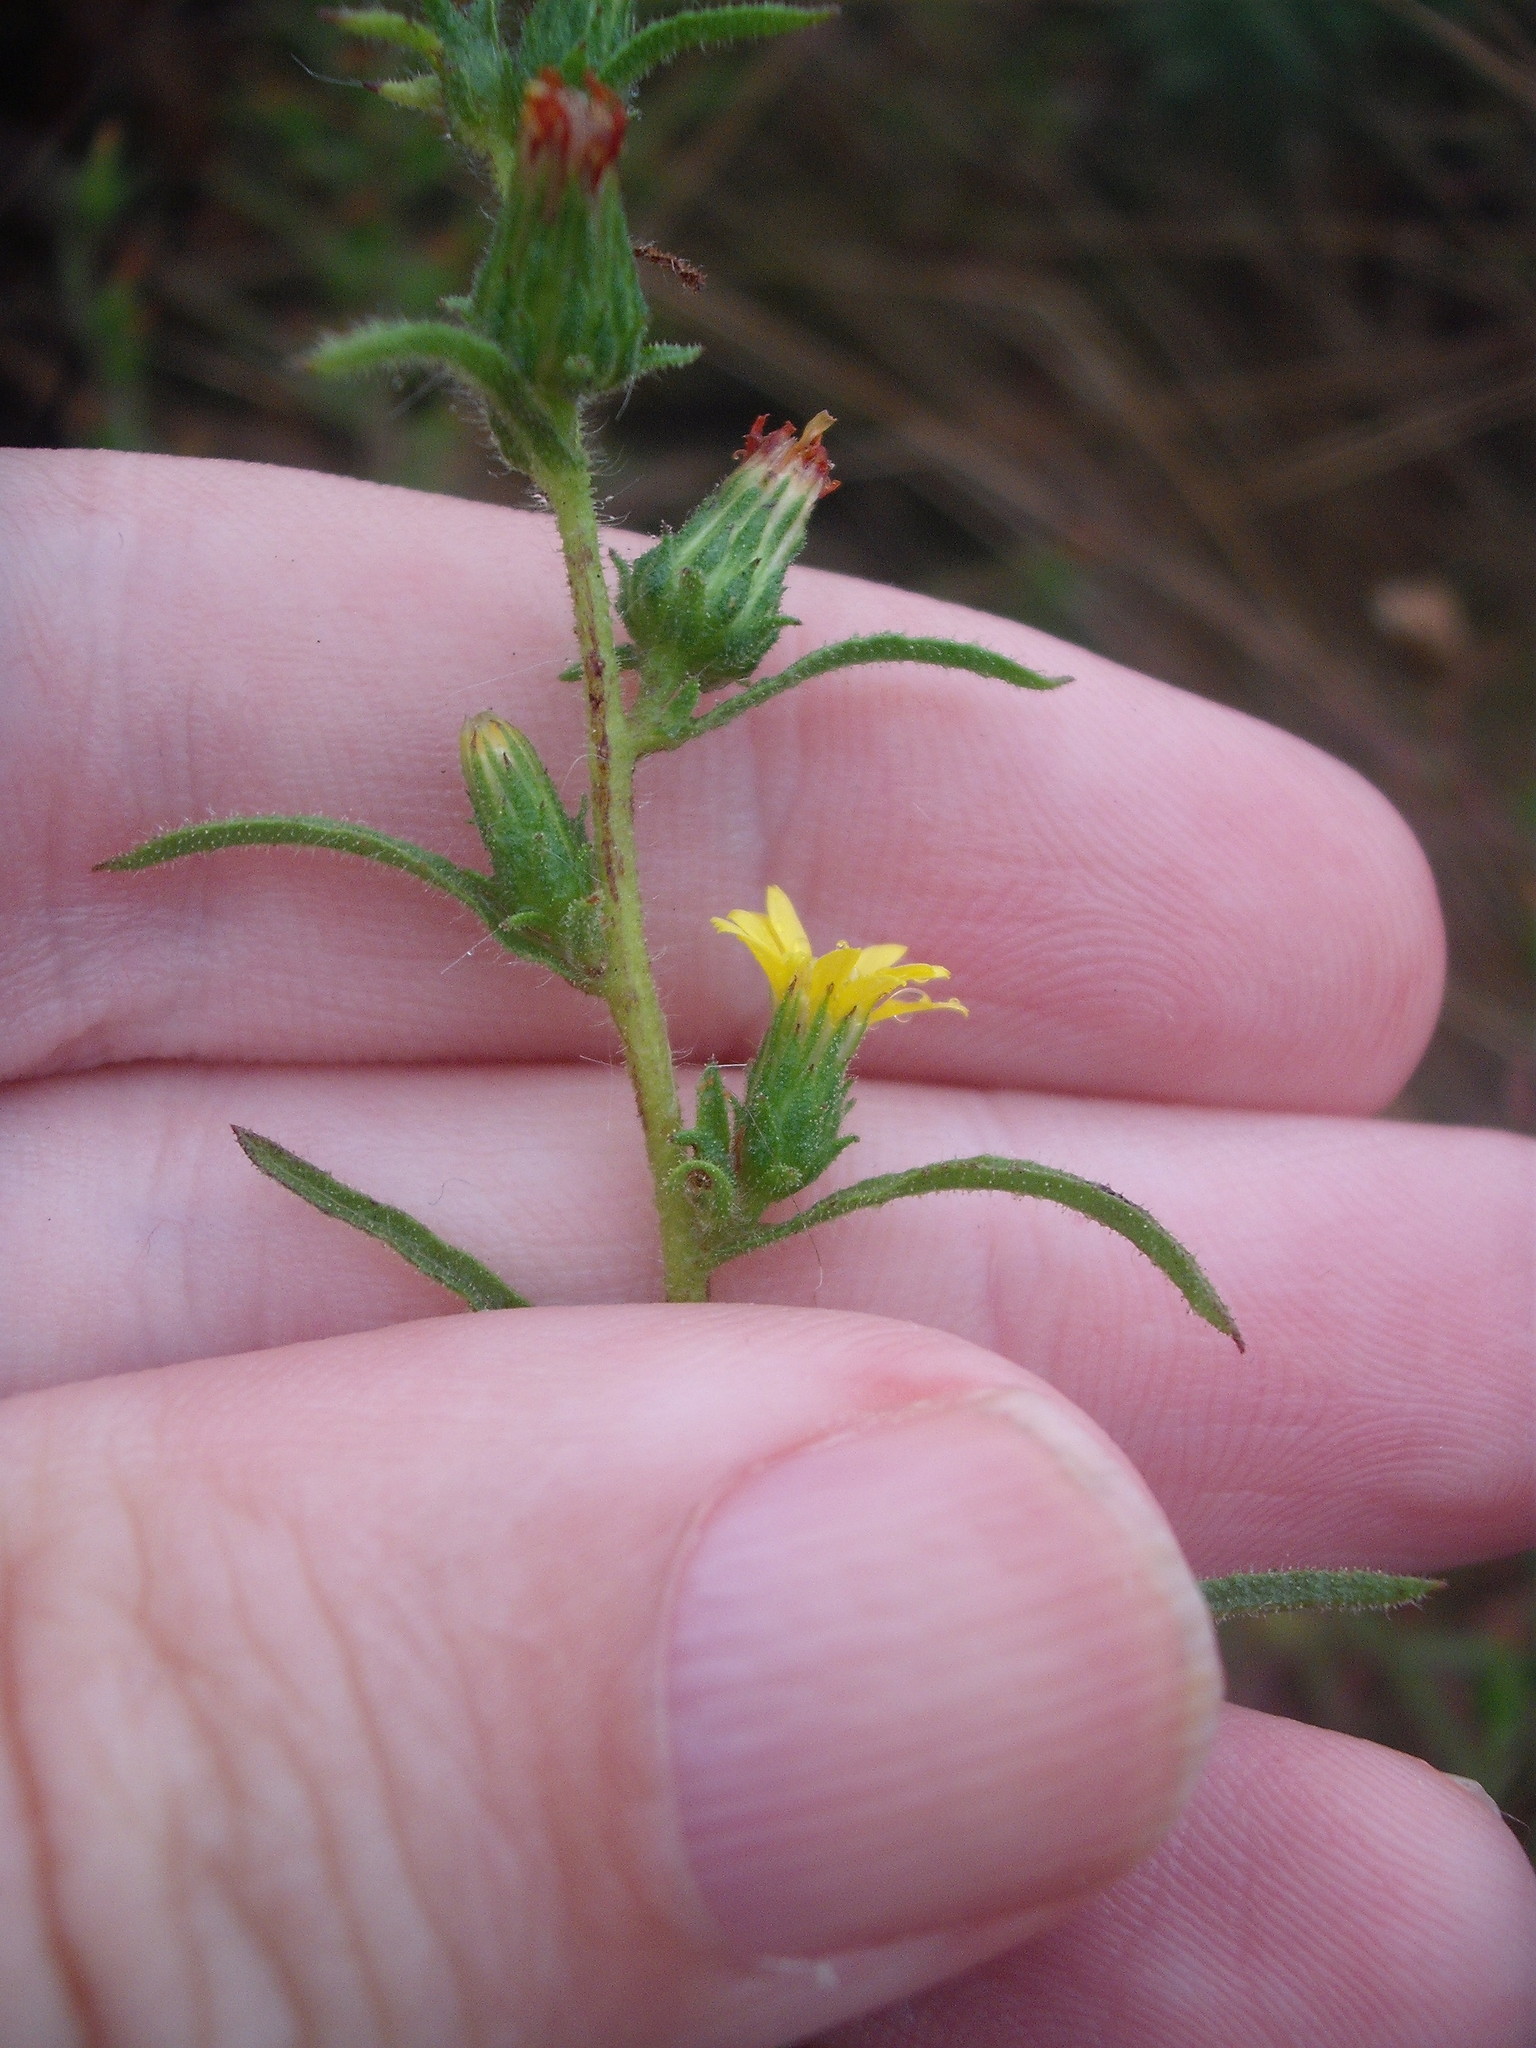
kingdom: Plantae
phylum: Tracheophyta
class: Magnoliopsida
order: Asterales
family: Asteraceae
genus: Dittrichia
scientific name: Dittrichia graveolens
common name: Stinking fleabane
